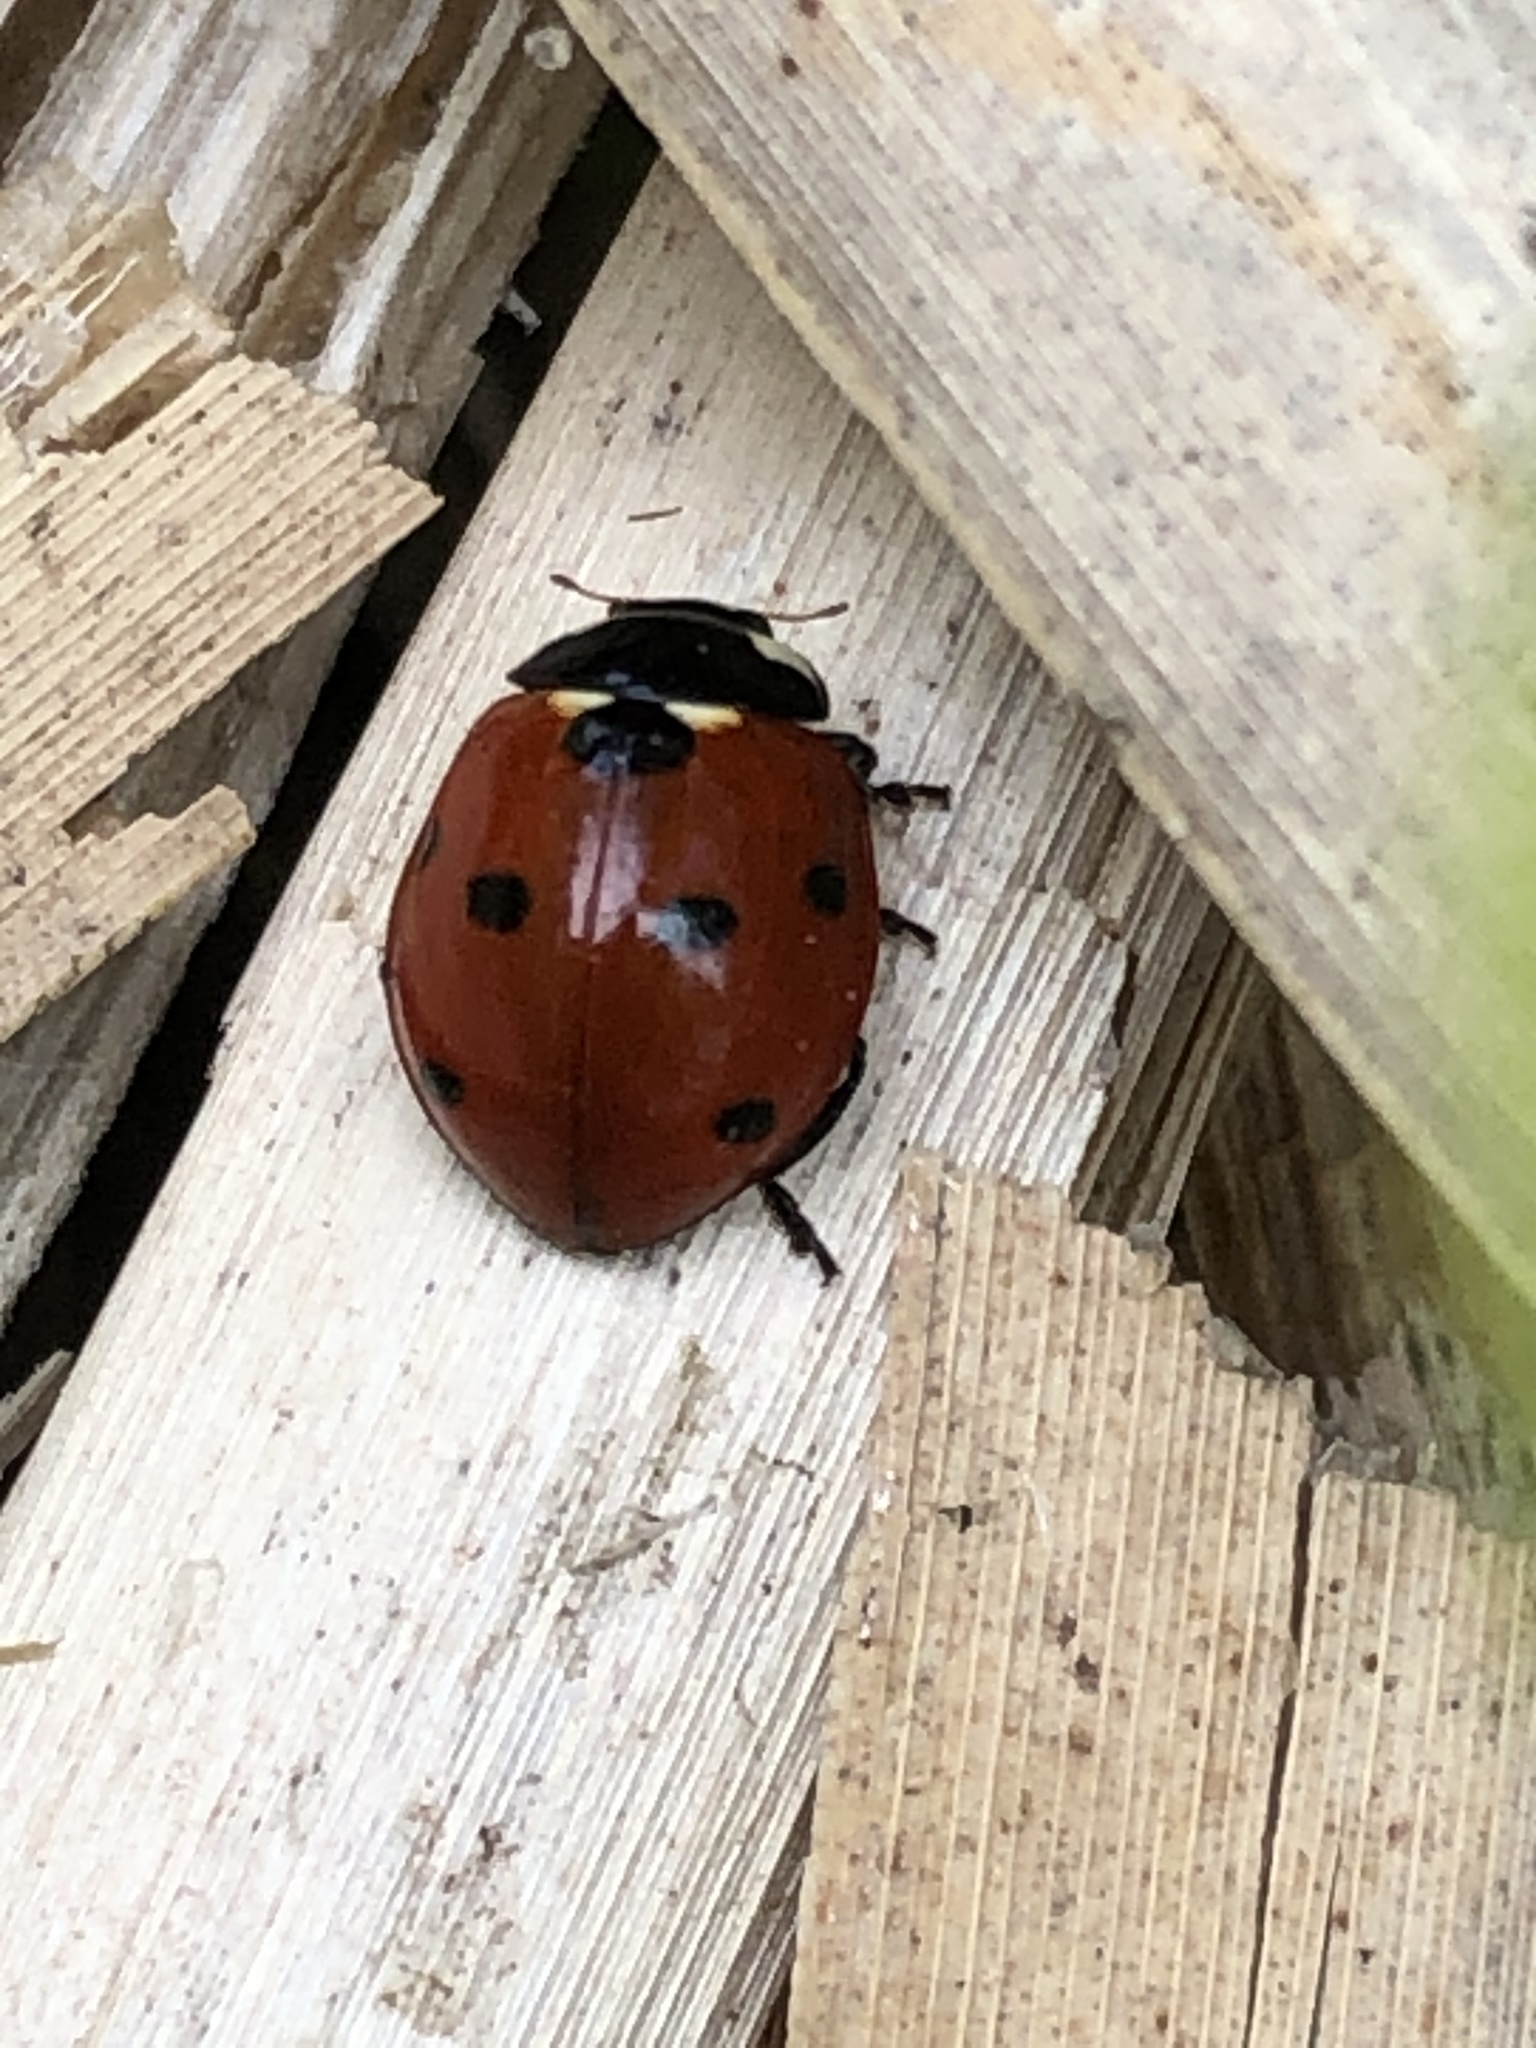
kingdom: Animalia
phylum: Arthropoda
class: Insecta
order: Coleoptera
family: Coccinellidae
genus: Coccinella
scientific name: Coccinella septempunctata
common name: Sevenspotted lady beetle
